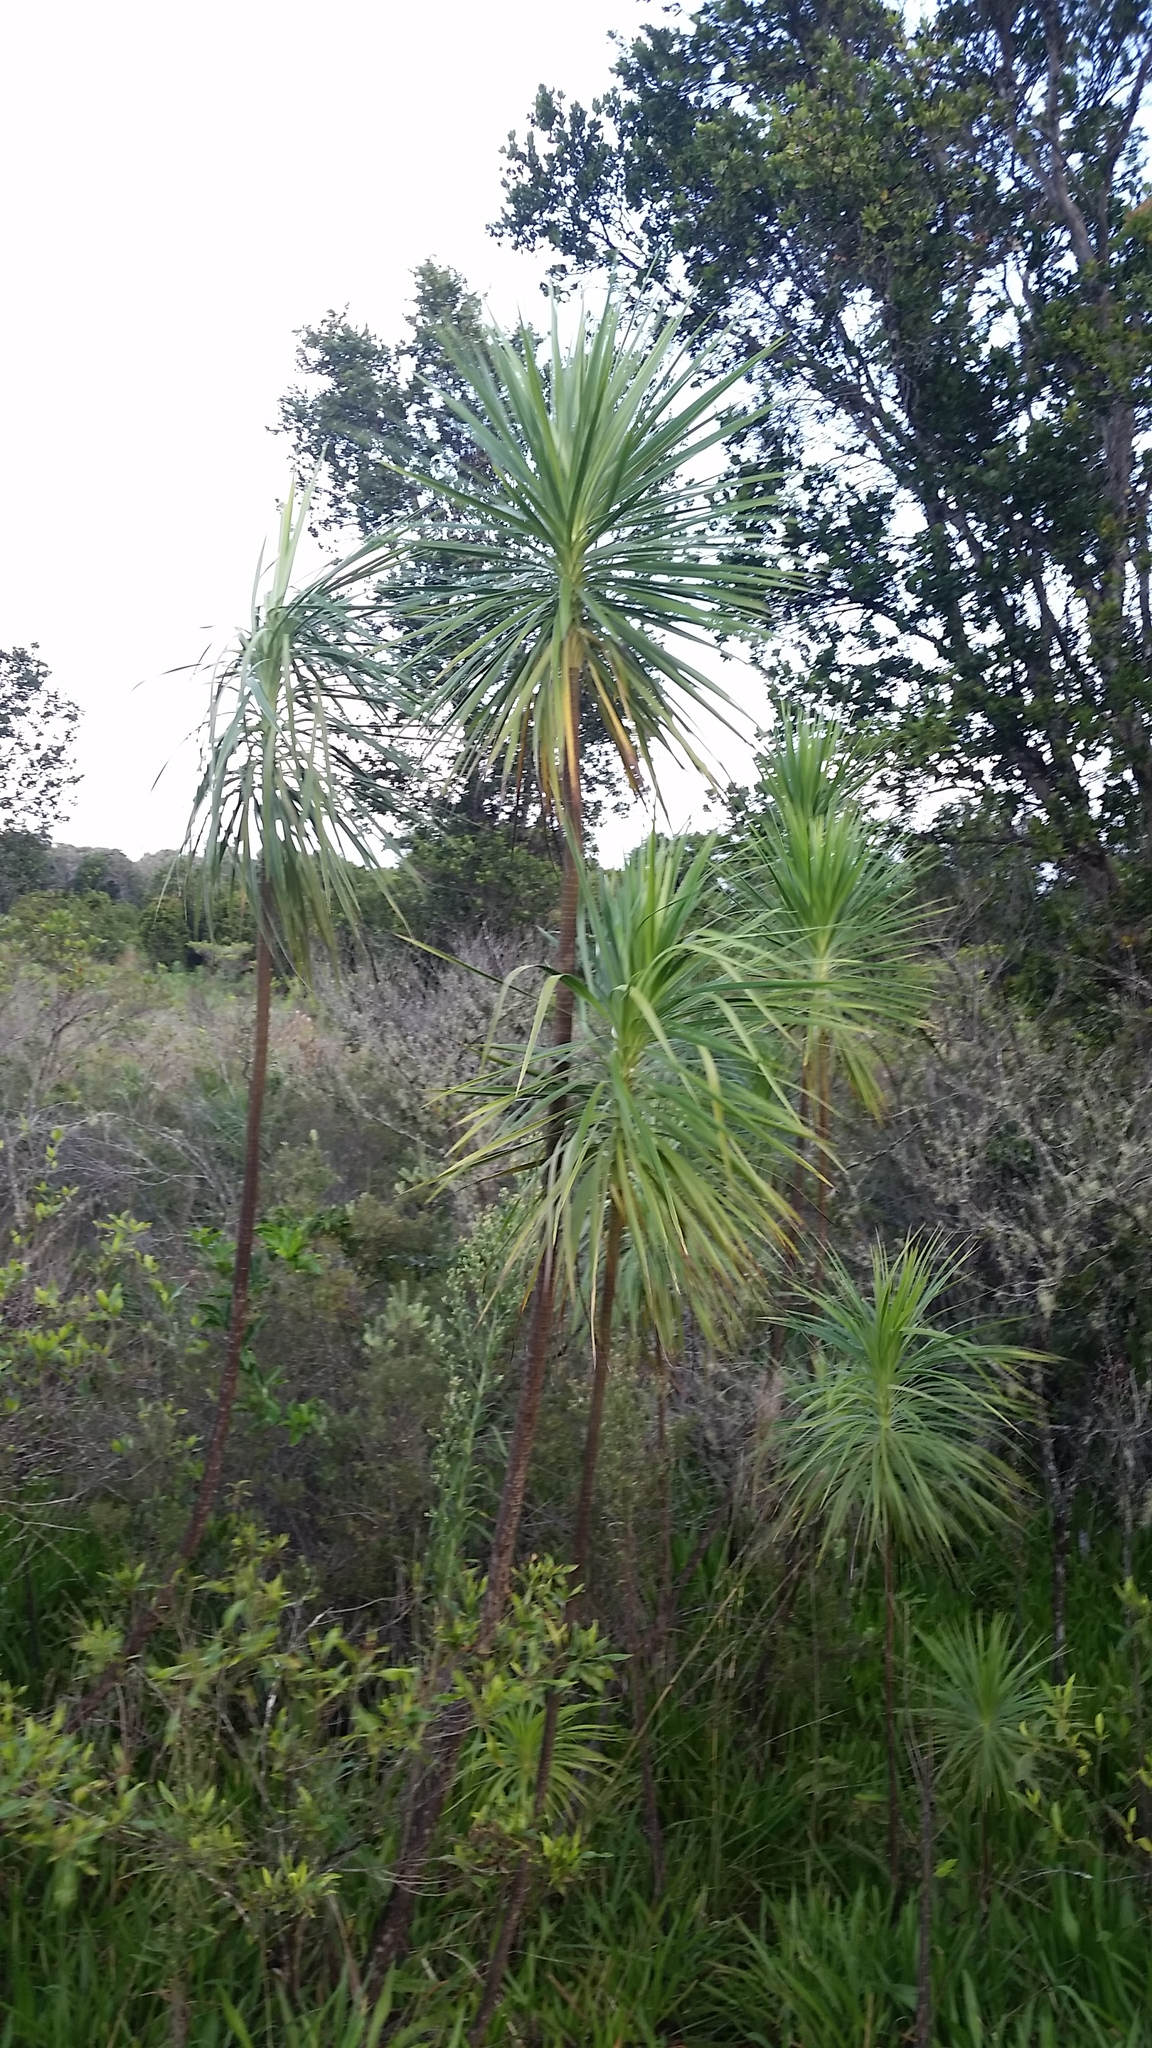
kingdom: Plantae
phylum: Tracheophyta
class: Magnoliopsida
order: Asterales
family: Asteraceae
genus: Wilkesia
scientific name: Wilkesia gymnoxiphium
